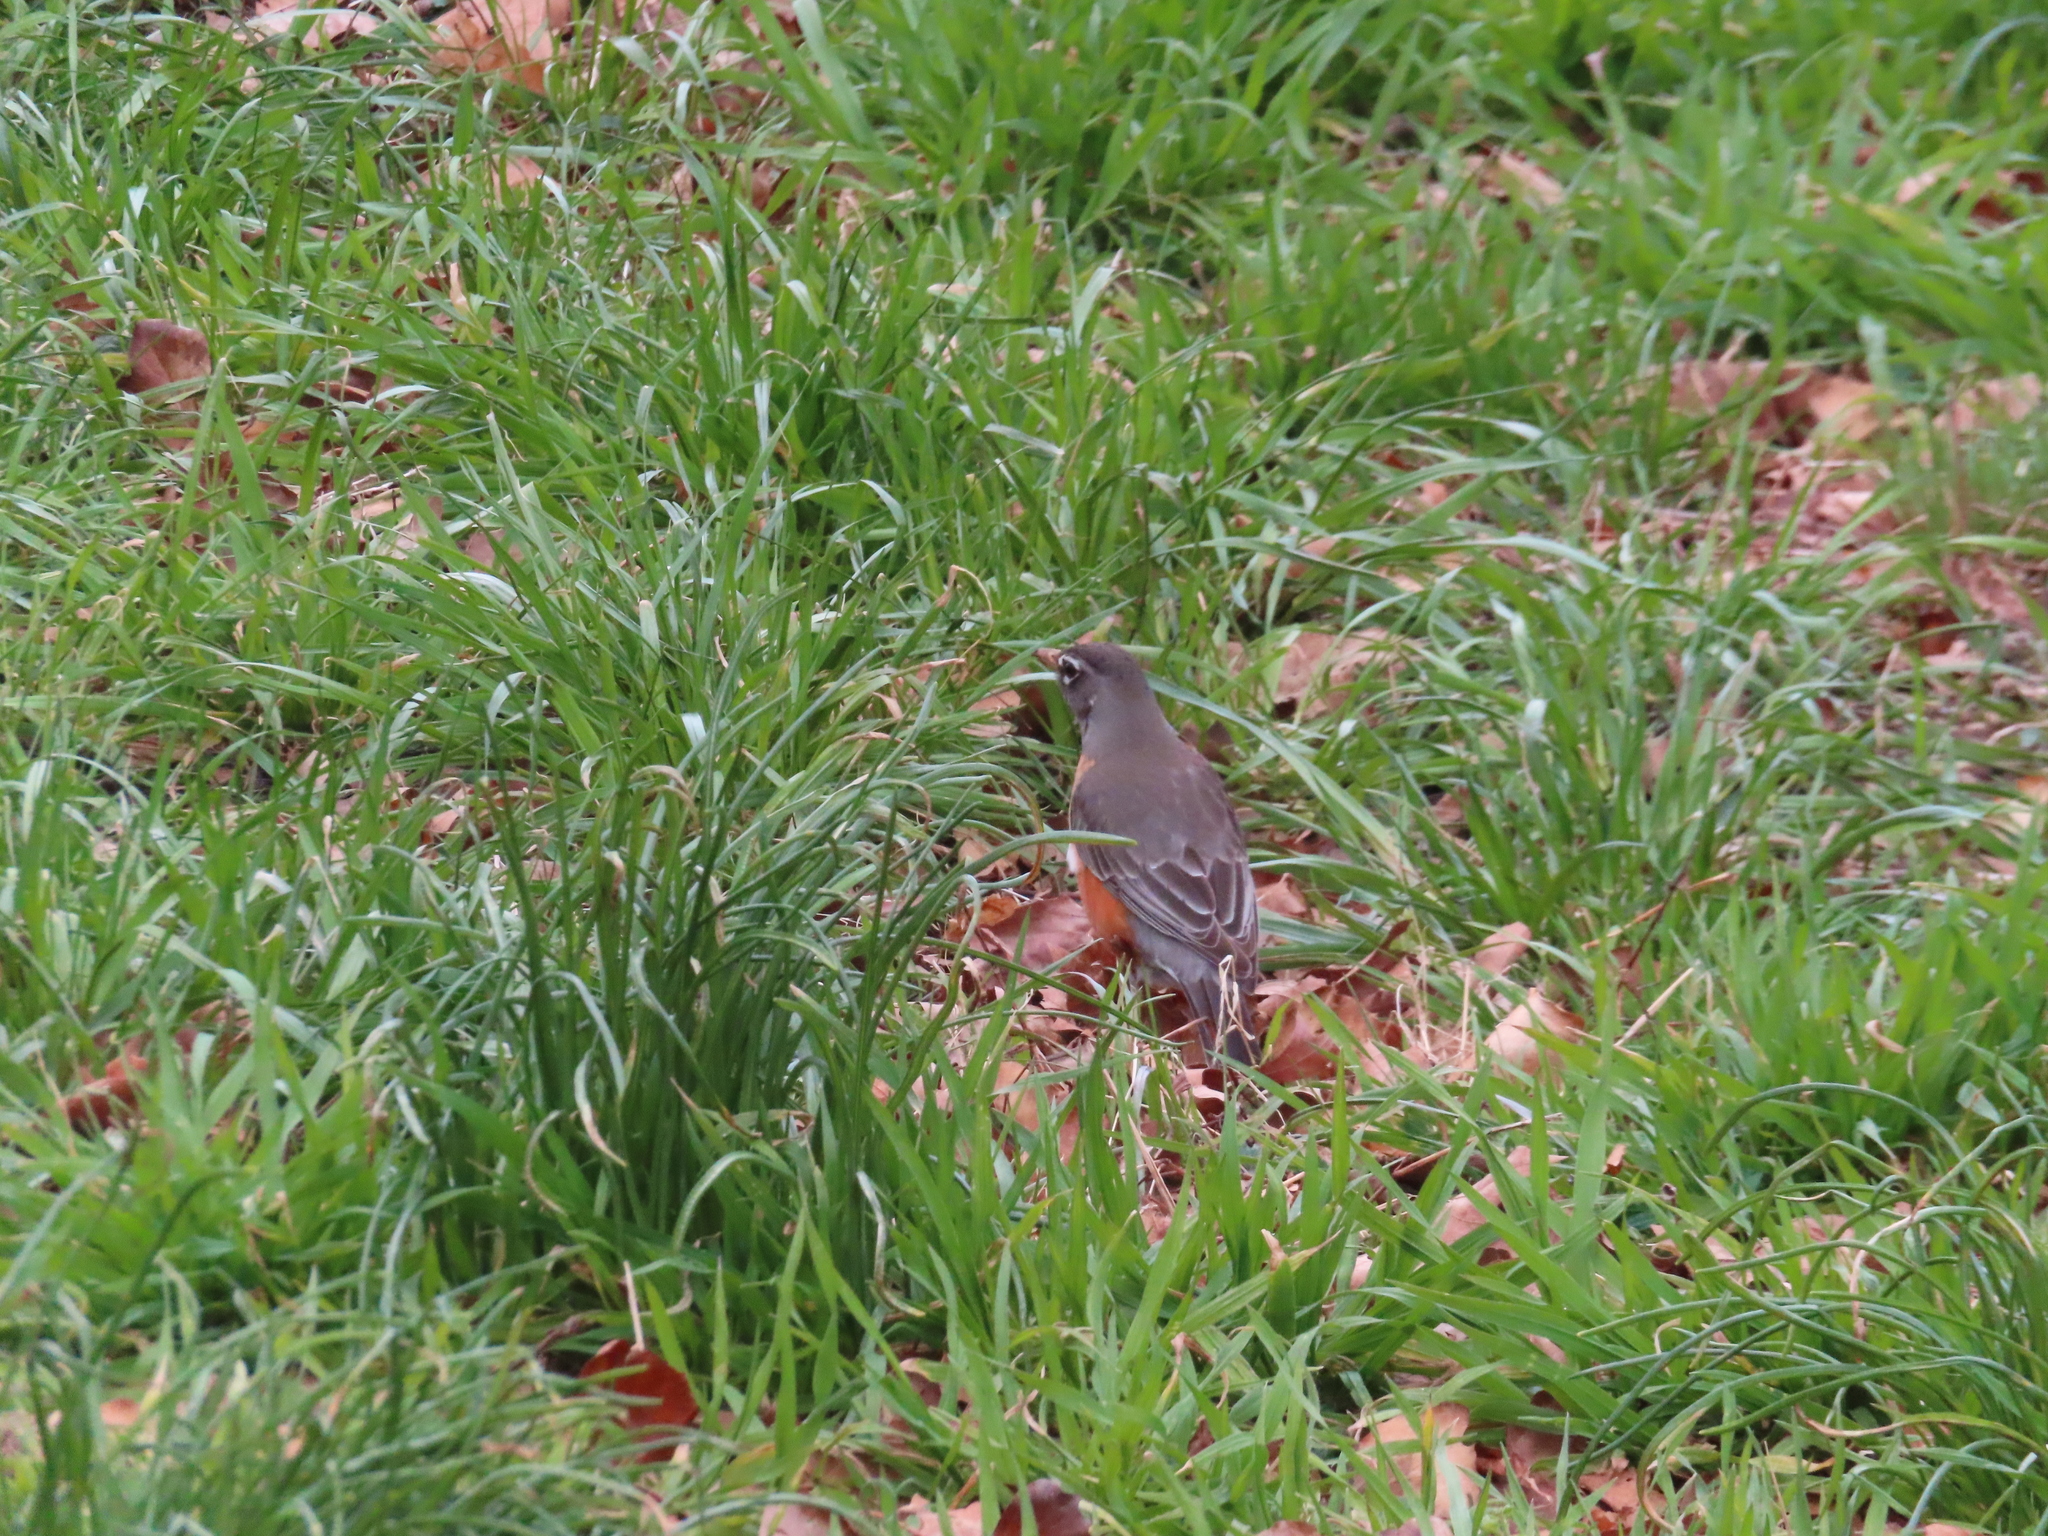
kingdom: Animalia
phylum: Chordata
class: Aves
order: Passeriformes
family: Turdidae
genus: Turdus
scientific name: Turdus migratorius
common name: American robin
